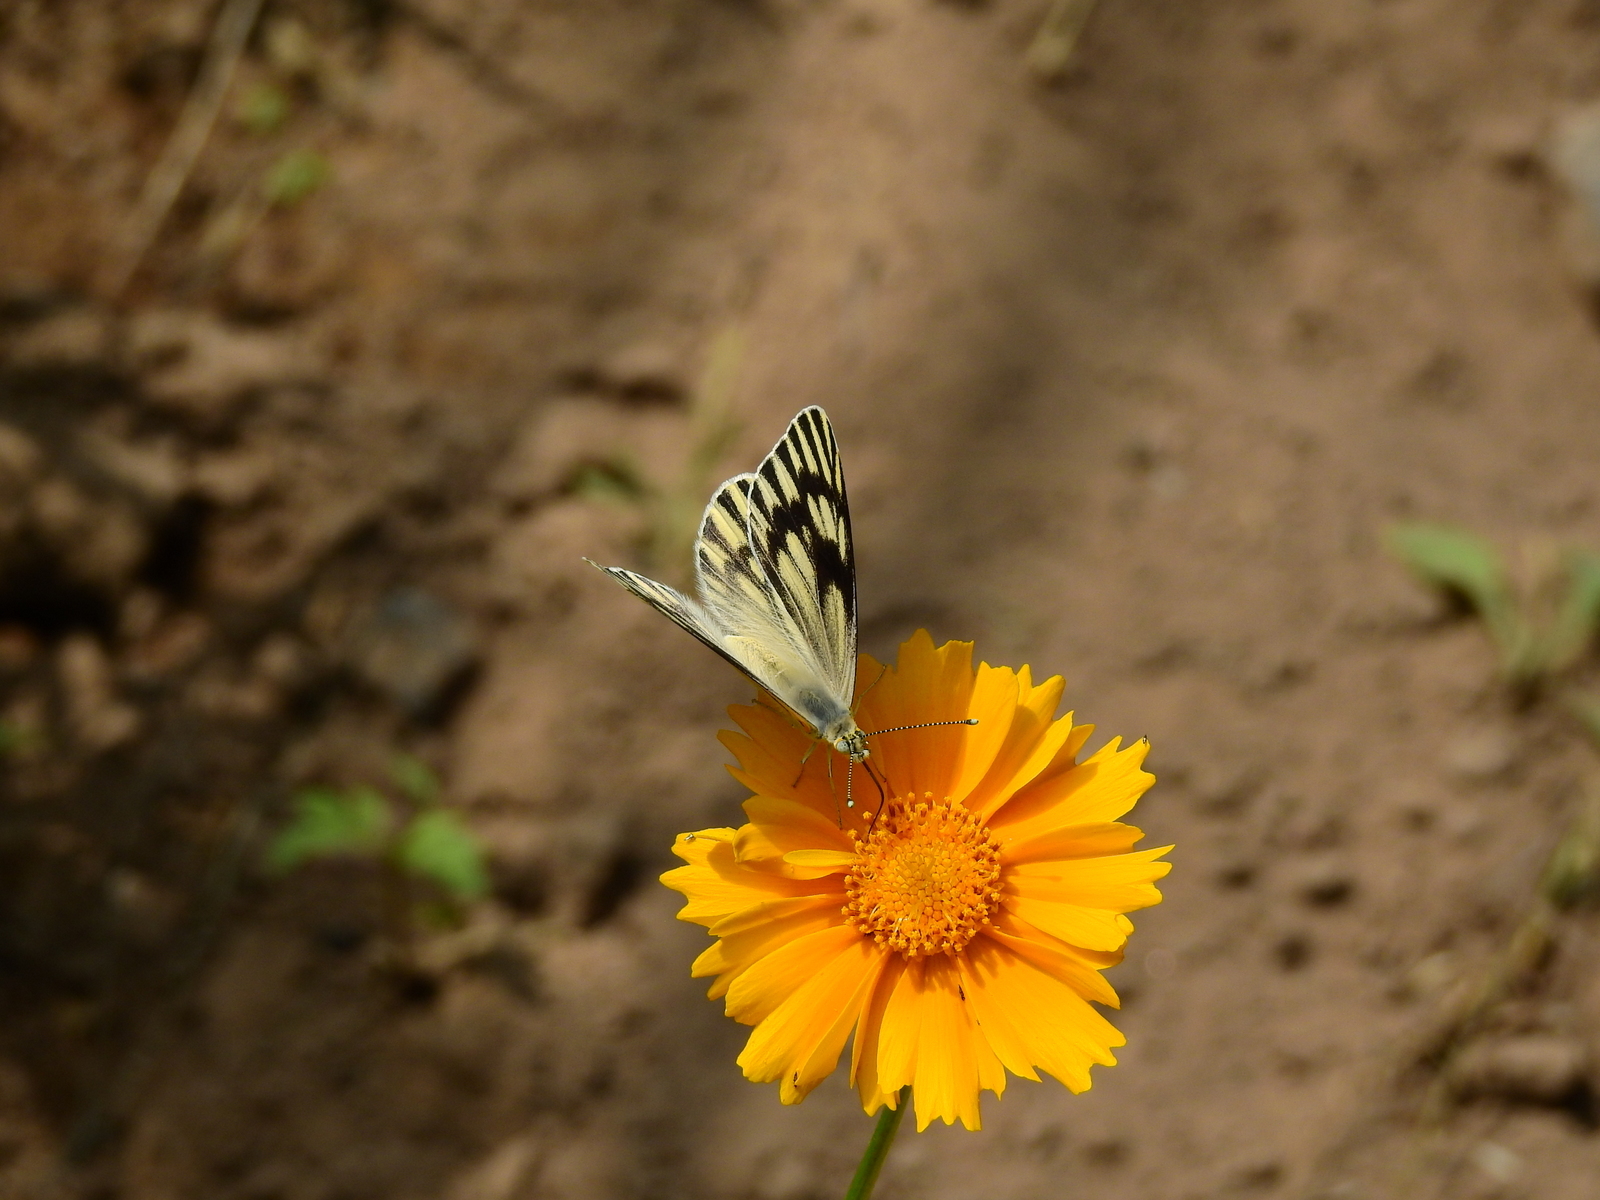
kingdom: Animalia
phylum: Arthropoda
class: Insecta
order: Lepidoptera
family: Pieridae
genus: Tatochila
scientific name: Tatochila mercedis
